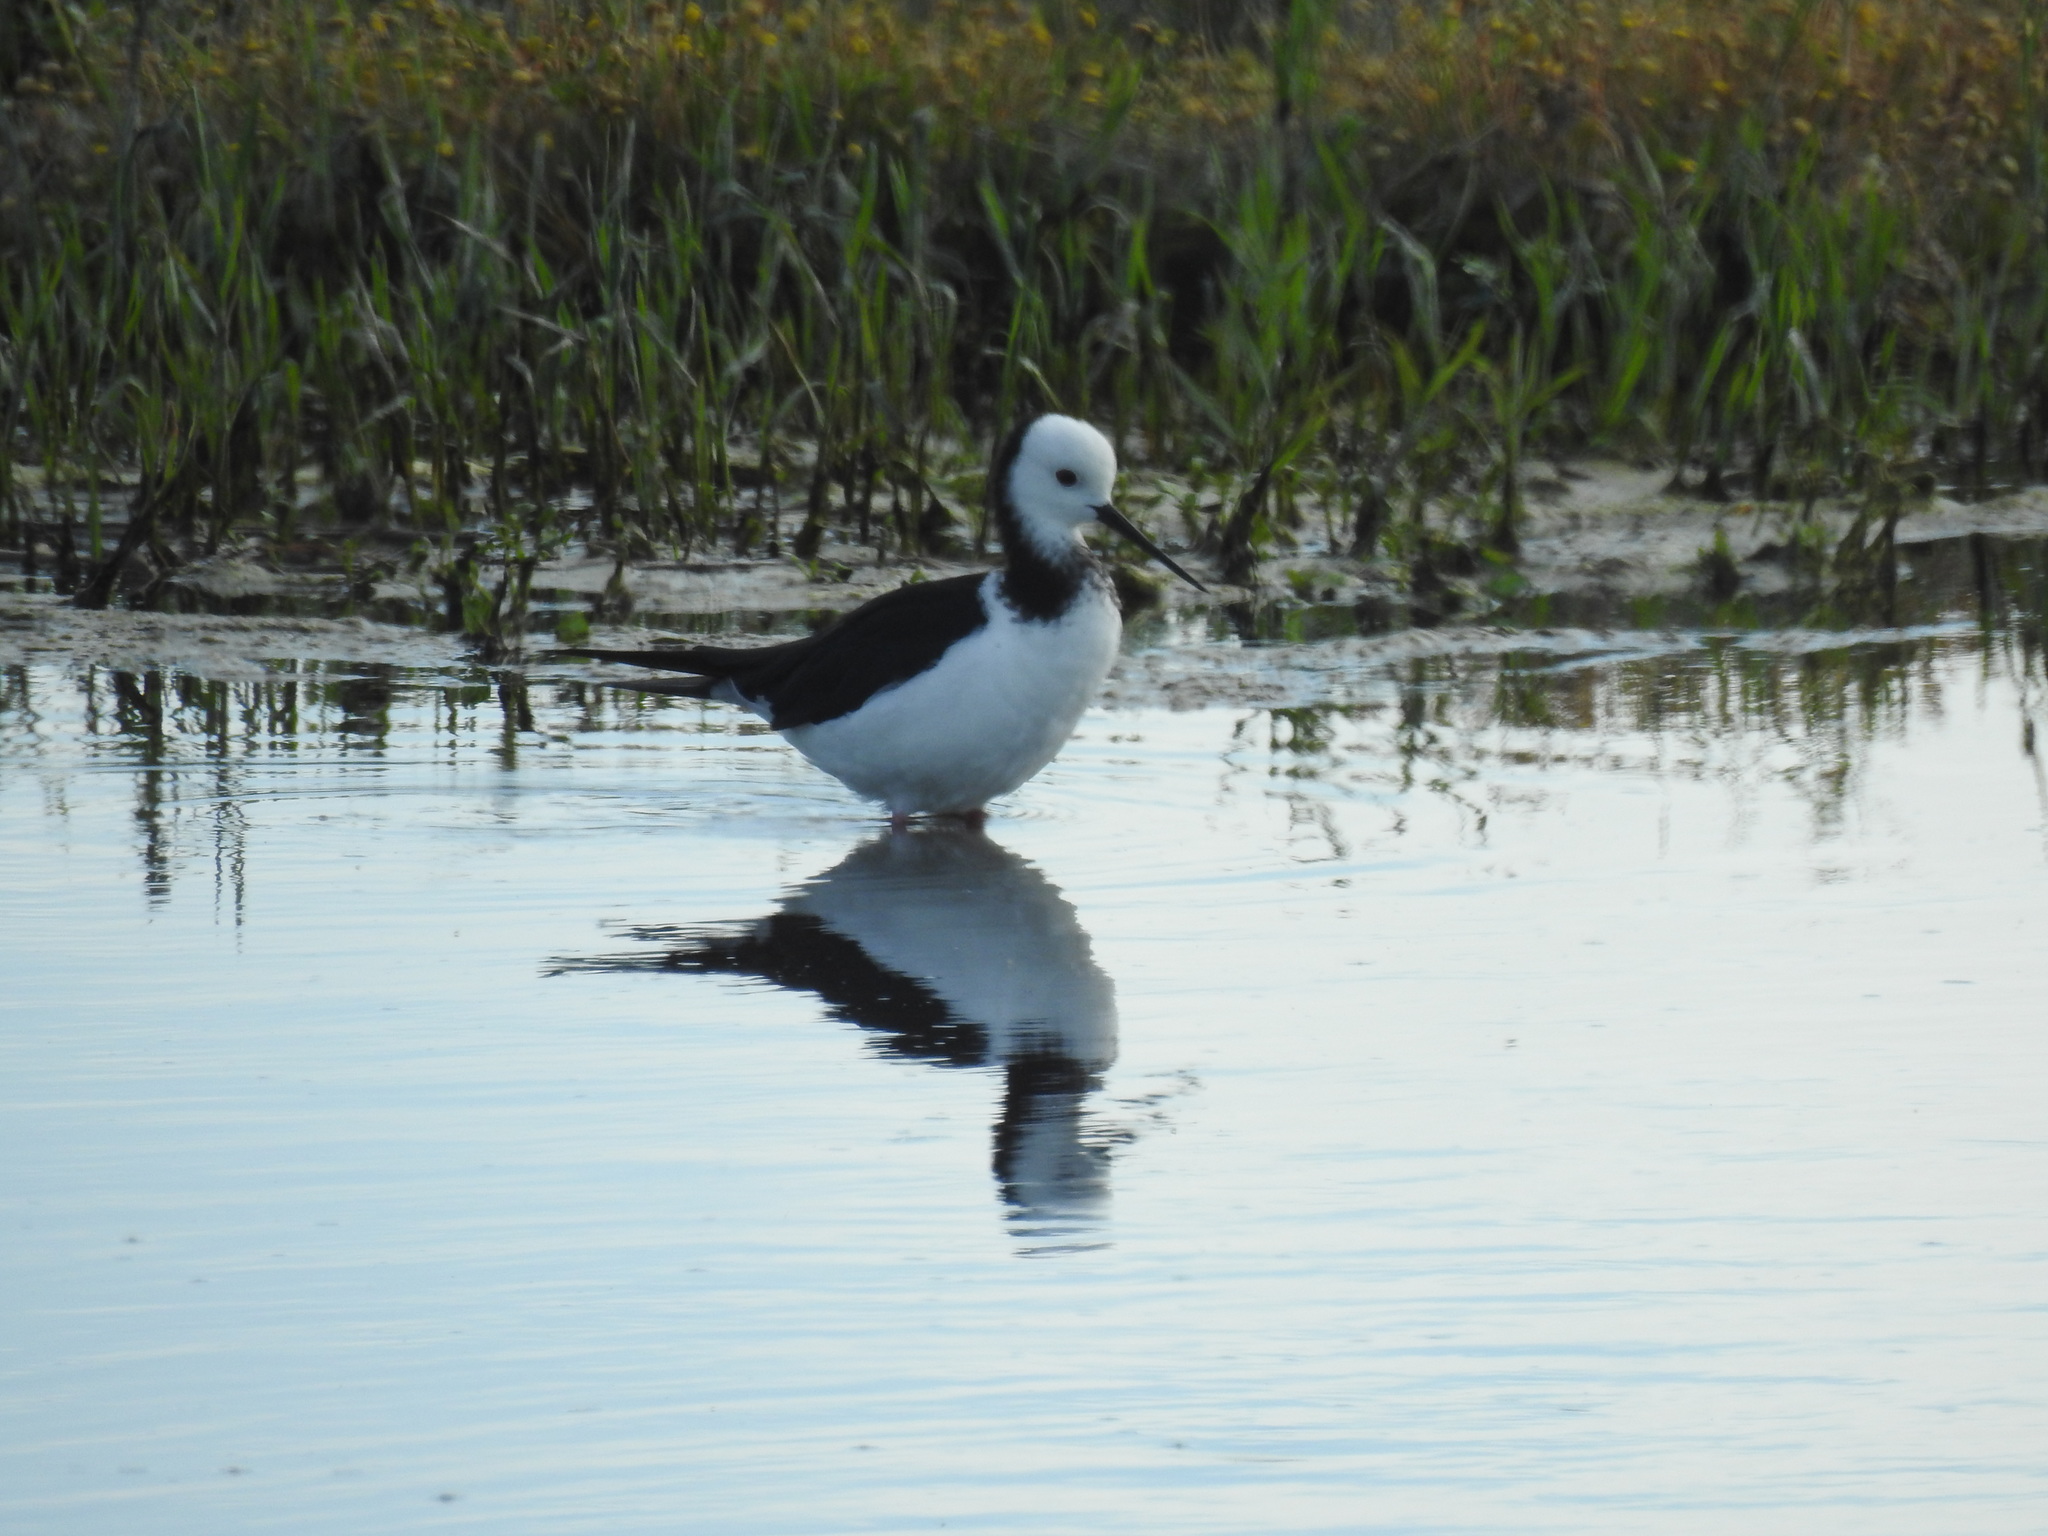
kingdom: Animalia
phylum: Chordata
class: Aves
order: Charadriiformes
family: Recurvirostridae
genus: Himantopus
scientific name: Himantopus leucocephalus
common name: White-headed stilt
